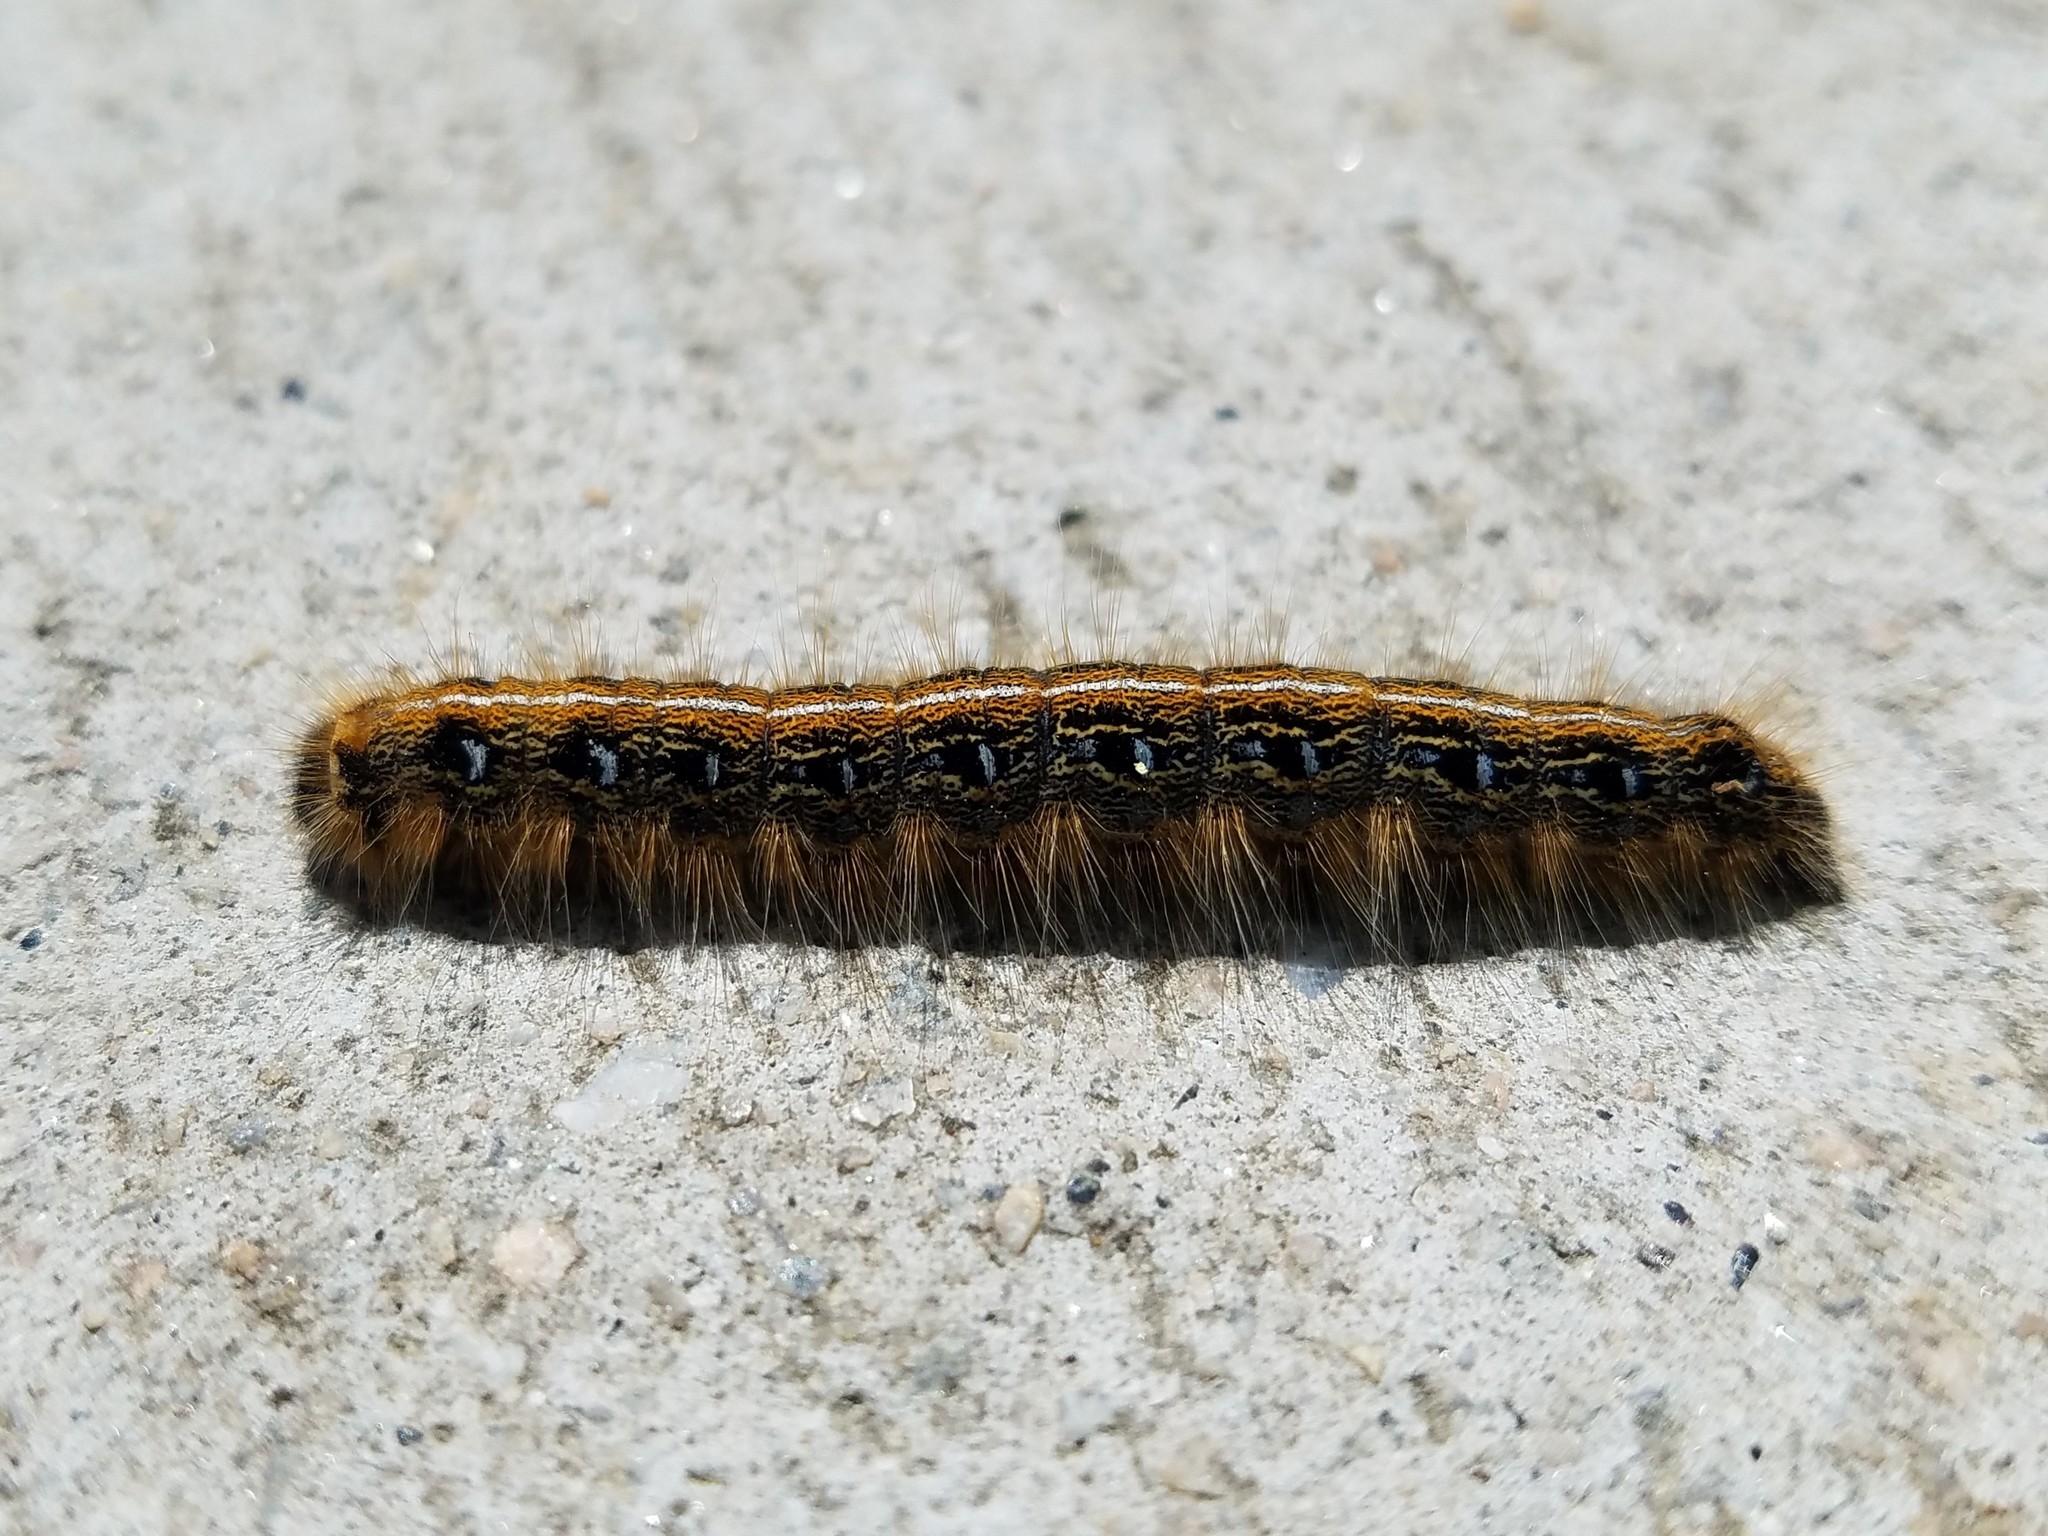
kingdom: Animalia
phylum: Arthropoda
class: Insecta
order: Lepidoptera
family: Lasiocampidae
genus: Malacosoma
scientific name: Malacosoma americana
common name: Eastern tent caterpillar moth
